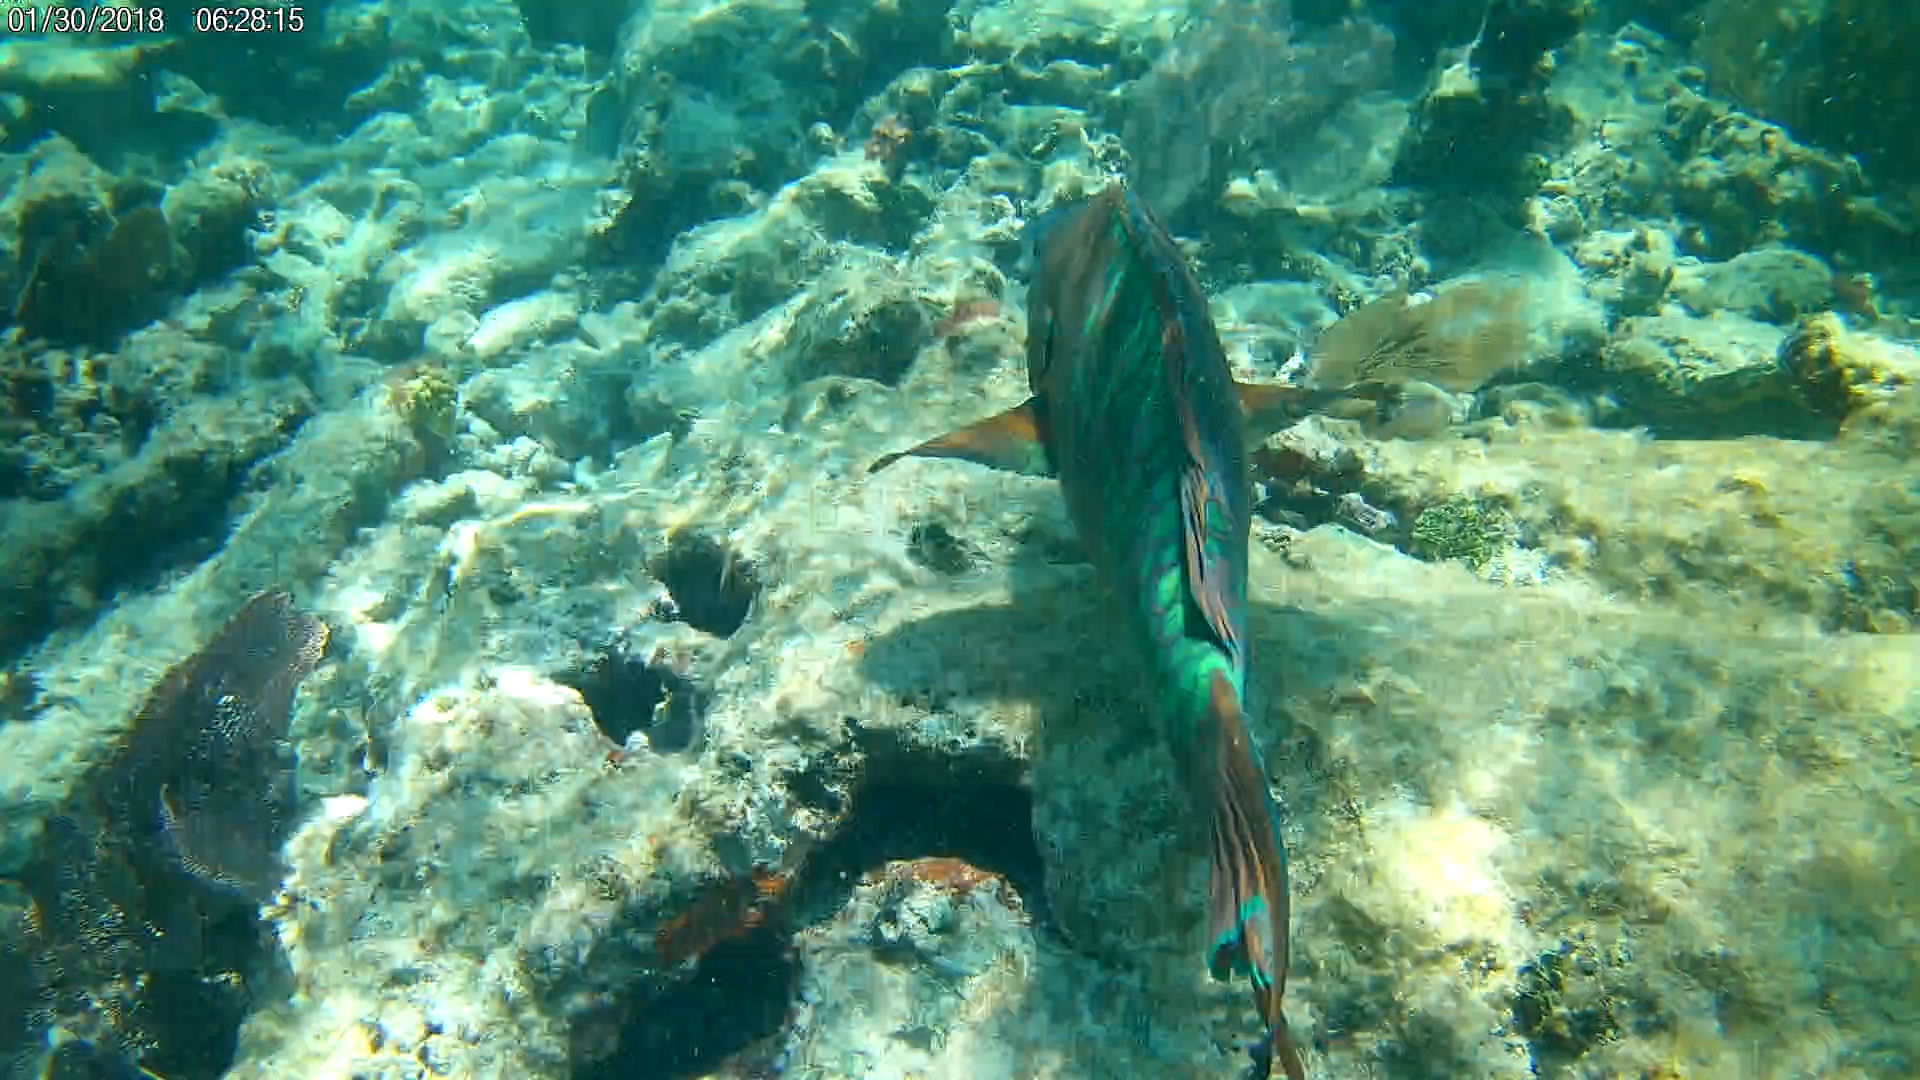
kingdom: Animalia
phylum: Chordata
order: Perciformes
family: Scaridae
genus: Scarus
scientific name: Scarus guacamaia
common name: Rainbow parrotfish
